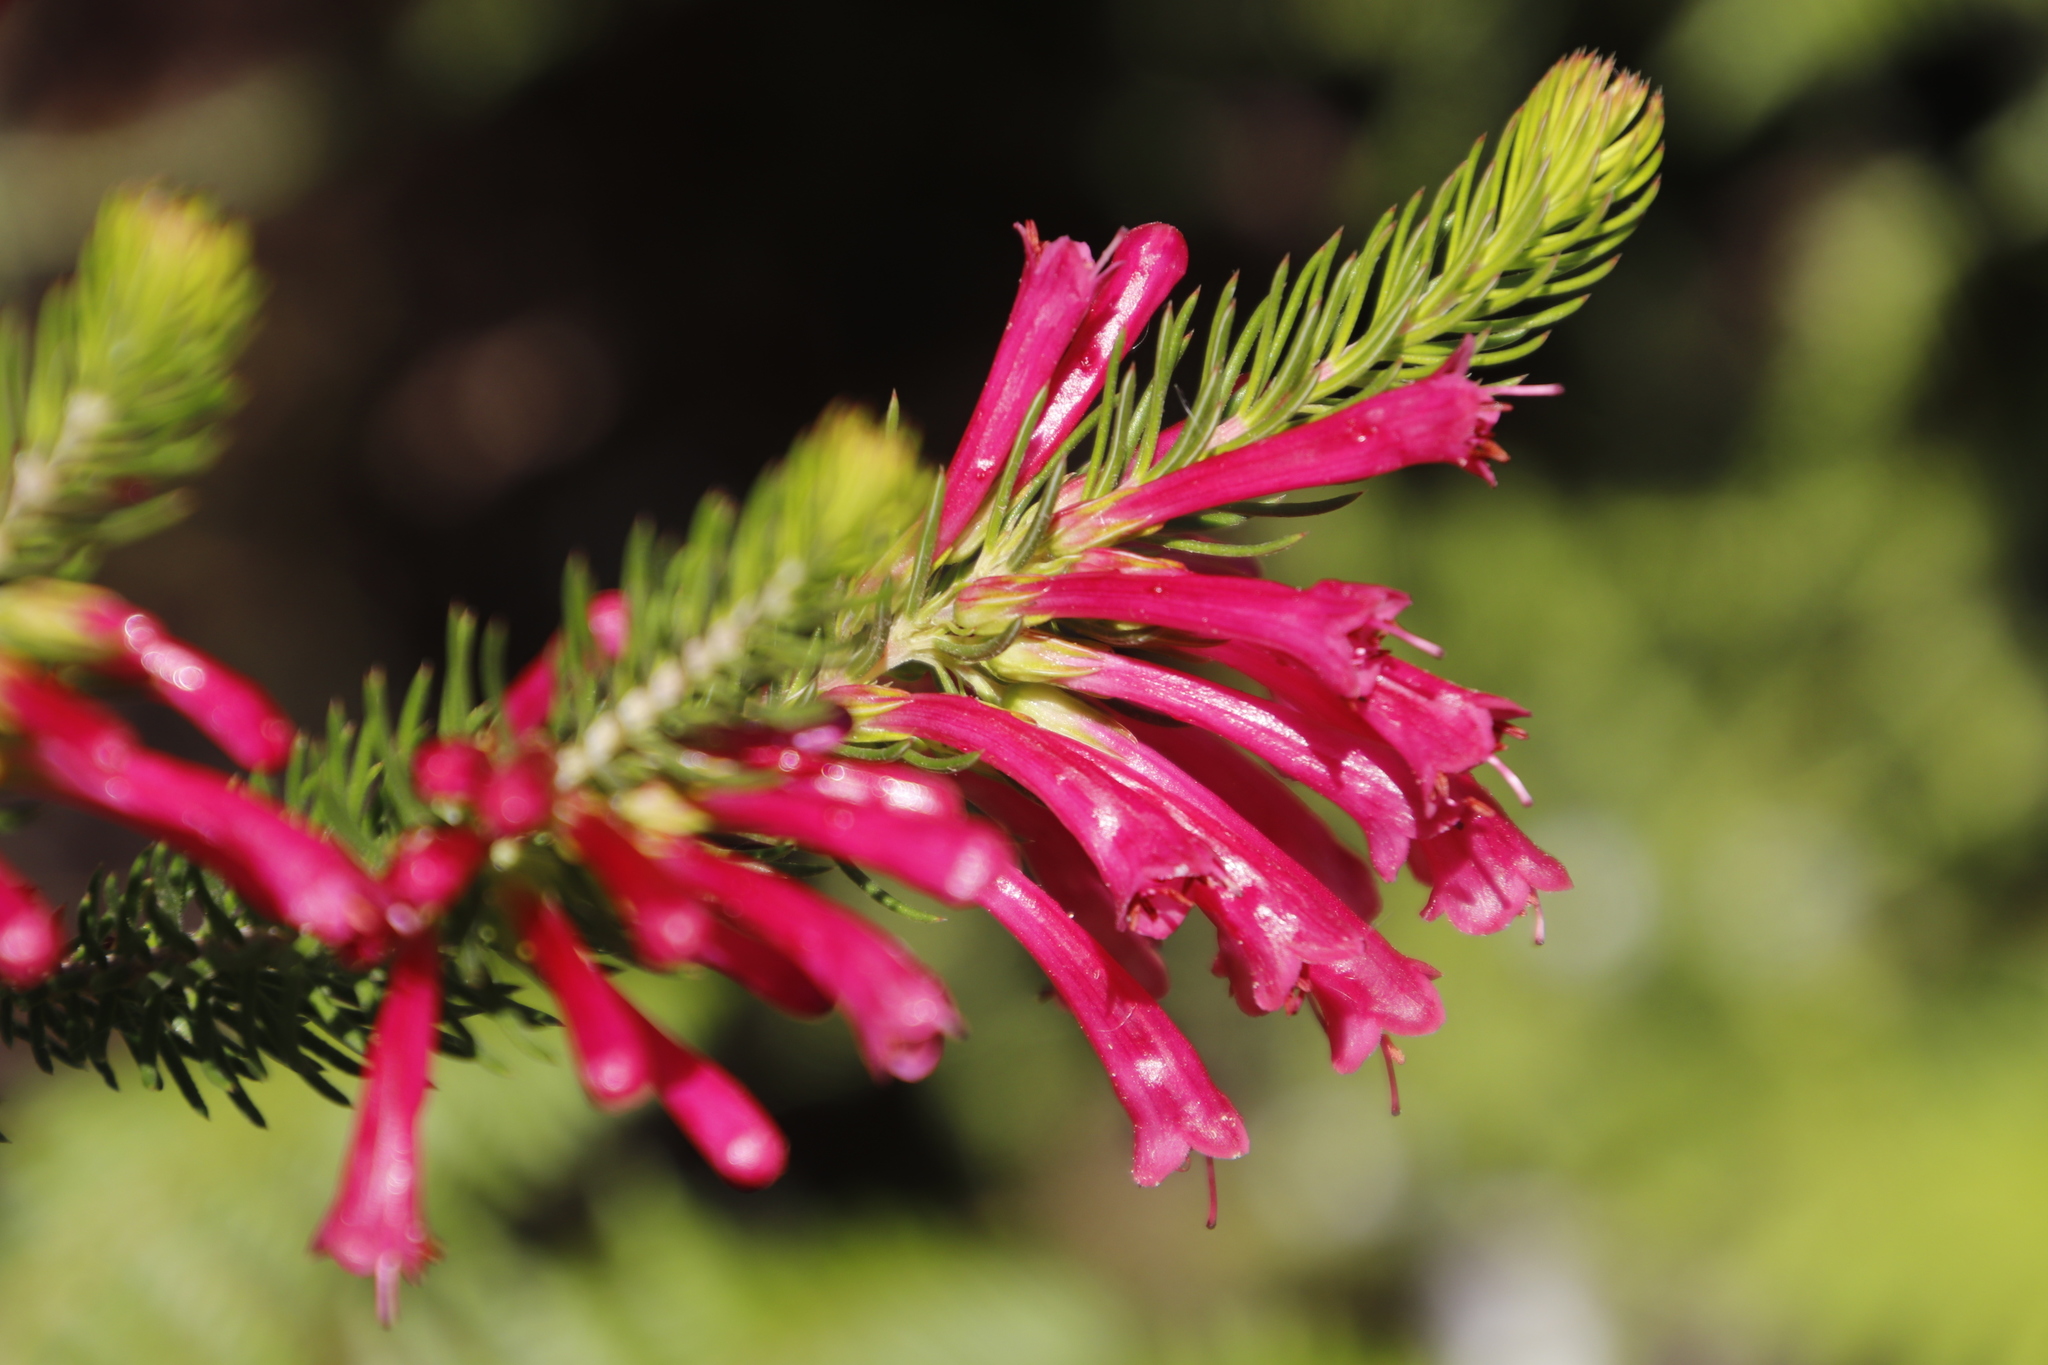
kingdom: Plantae
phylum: Tracheophyta
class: Magnoliopsida
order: Ericales
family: Ericaceae
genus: Erica
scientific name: Erica abietina
